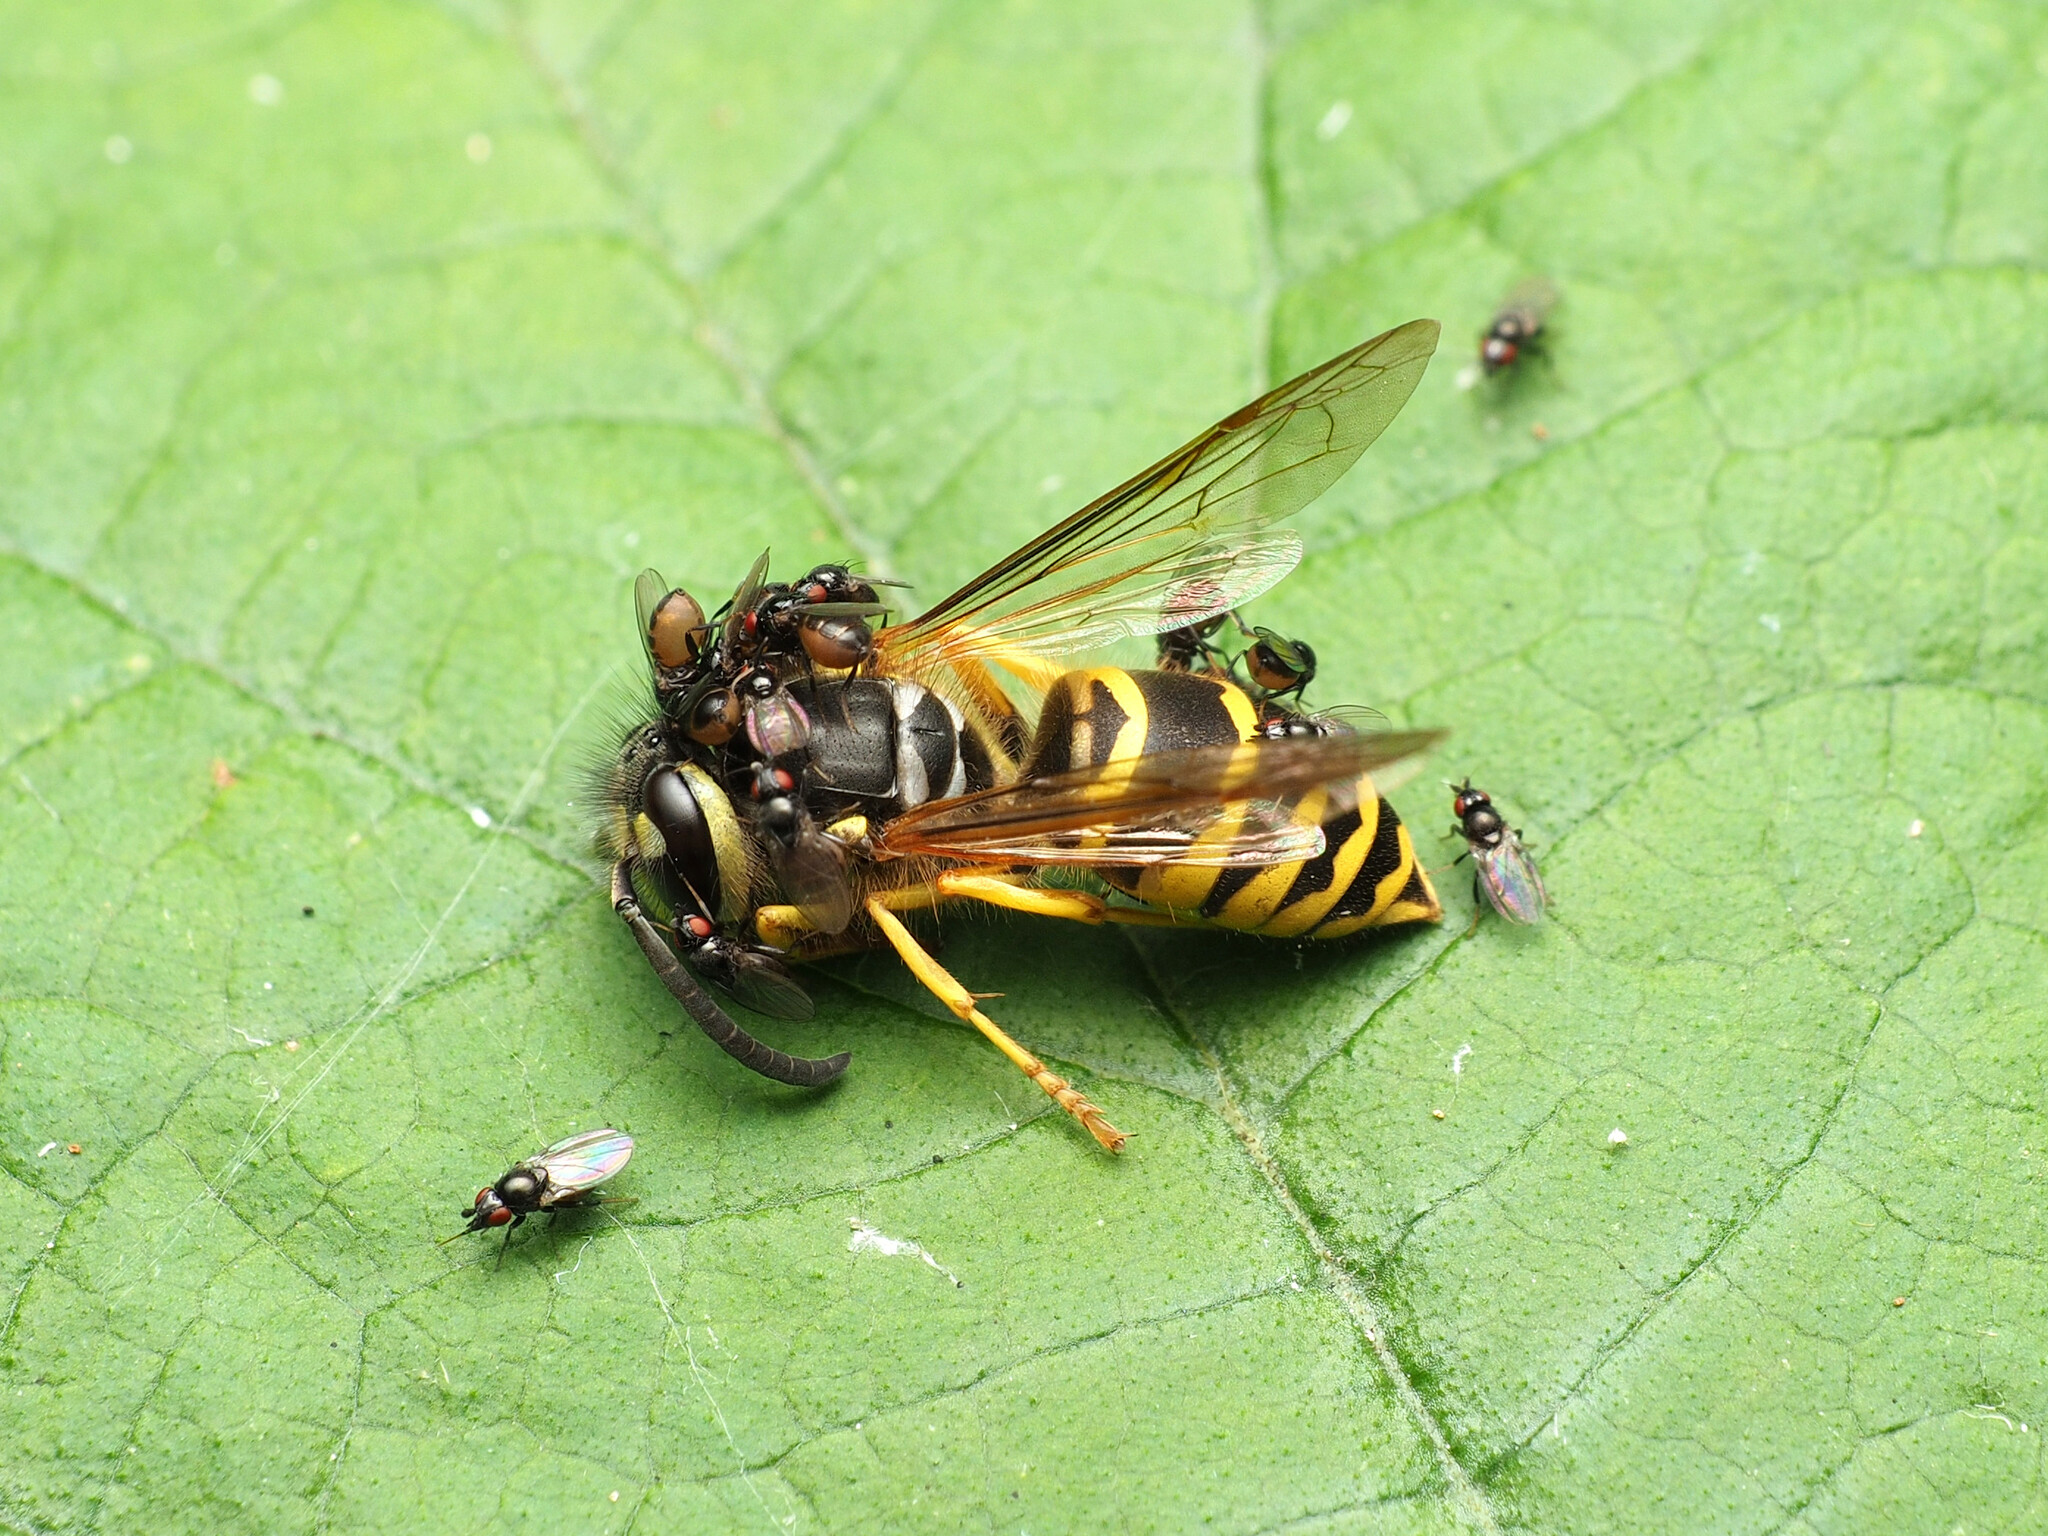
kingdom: Animalia
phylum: Arthropoda
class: Insecta
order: Hymenoptera
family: Vespidae
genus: Vespula
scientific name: Vespula maculifrons
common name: Eastern yellowjacket
